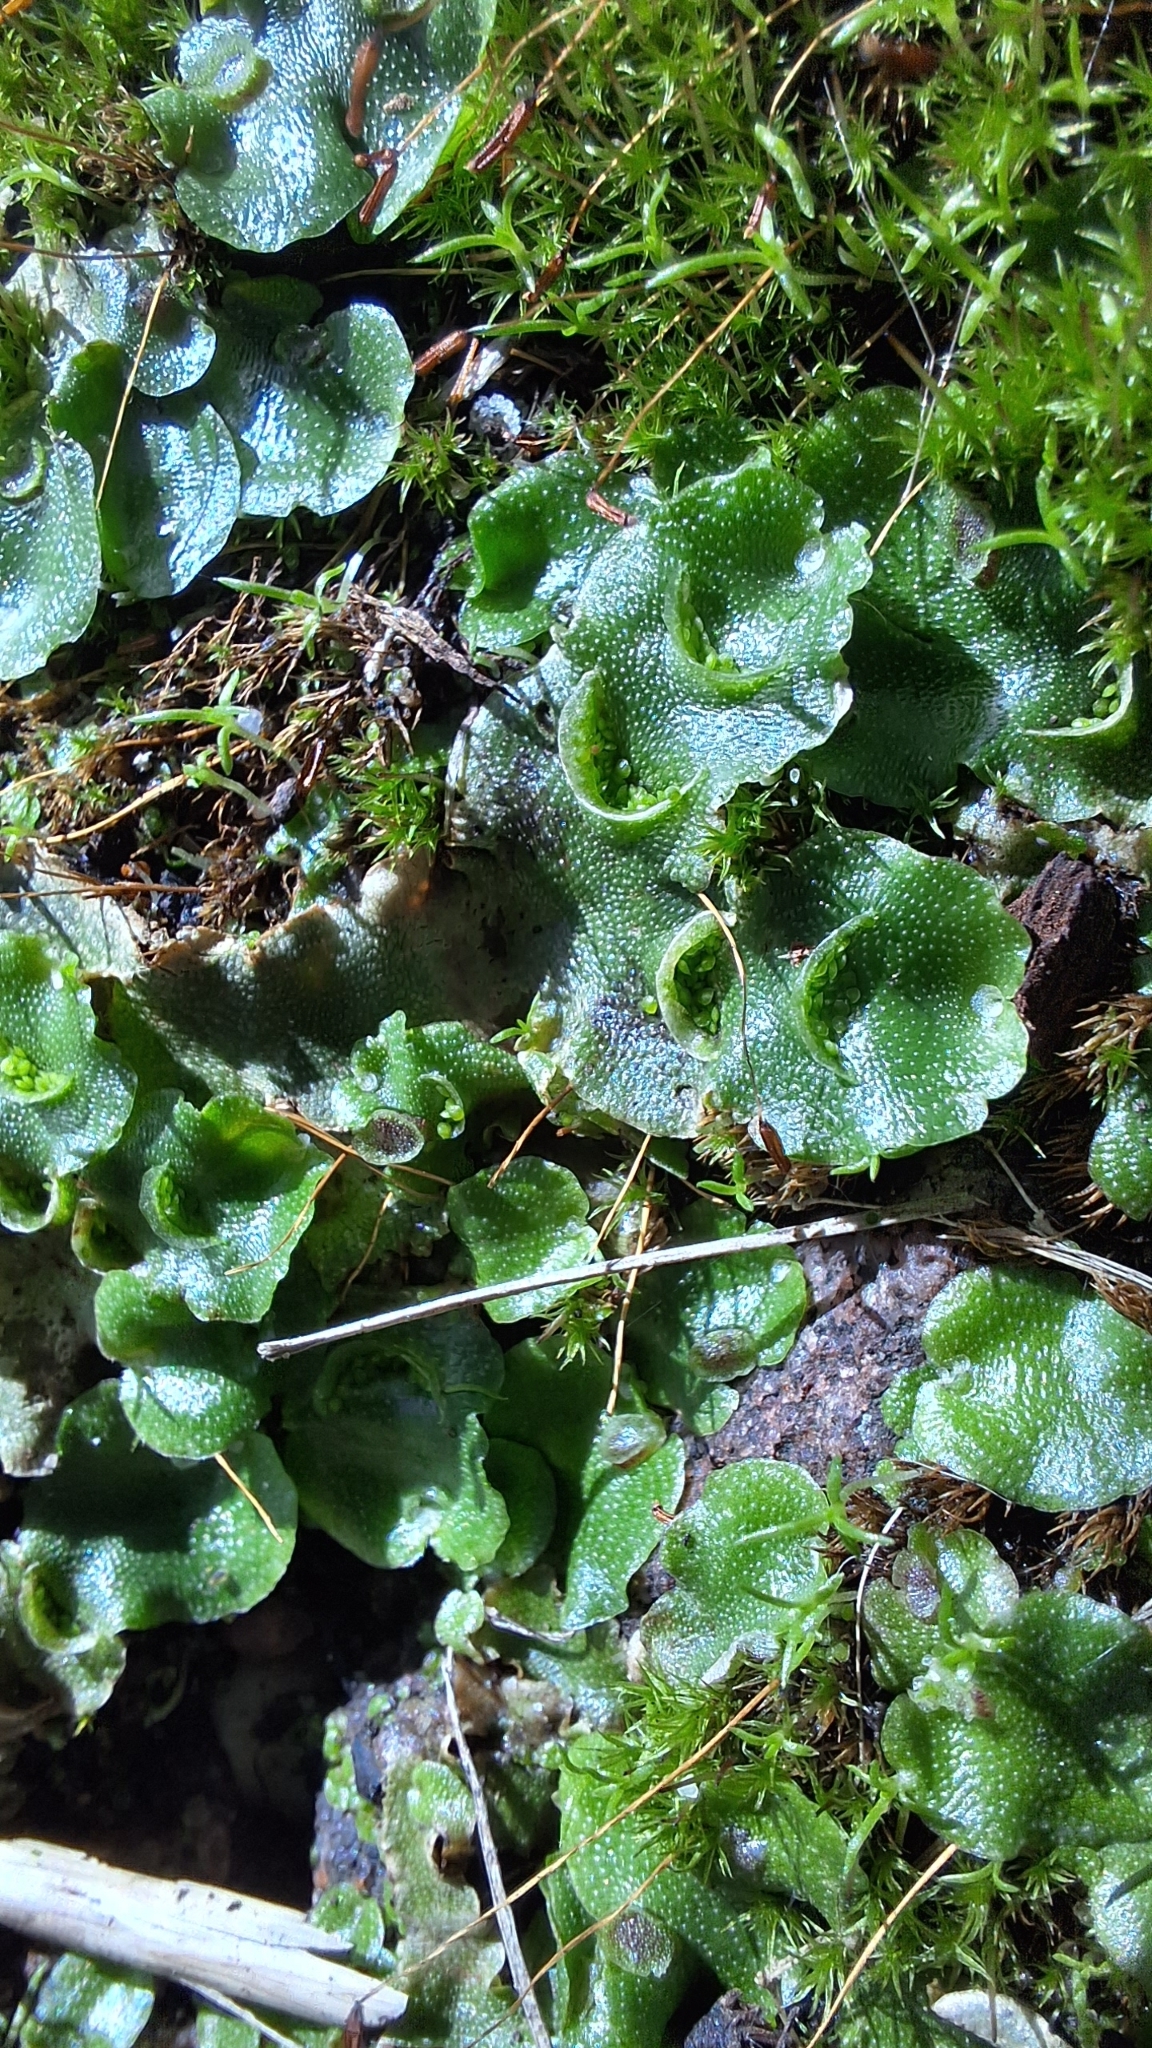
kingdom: Plantae
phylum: Marchantiophyta
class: Marchantiopsida
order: Lunulariales
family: Lunulariaceae
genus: Lunularia
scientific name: Lunularia cruciata
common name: Crescent-cup liverwort
